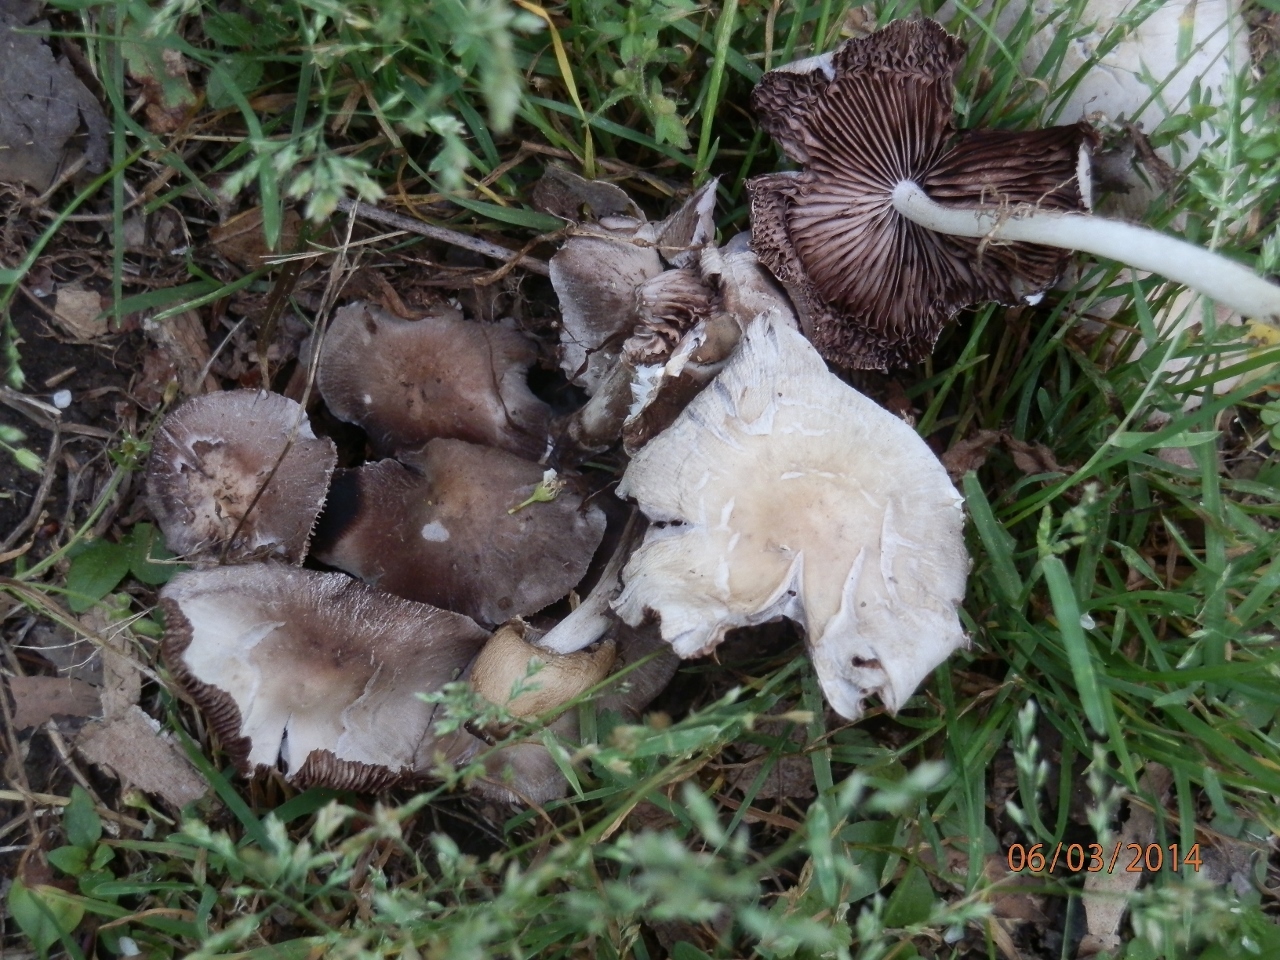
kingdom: Fungi
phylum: Basidiomycota
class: Agaricomycetes
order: Agaricales
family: Psathyrellaceae
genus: Coprinellus
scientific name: Coprinellus domesticus
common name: Firerug inkcap
